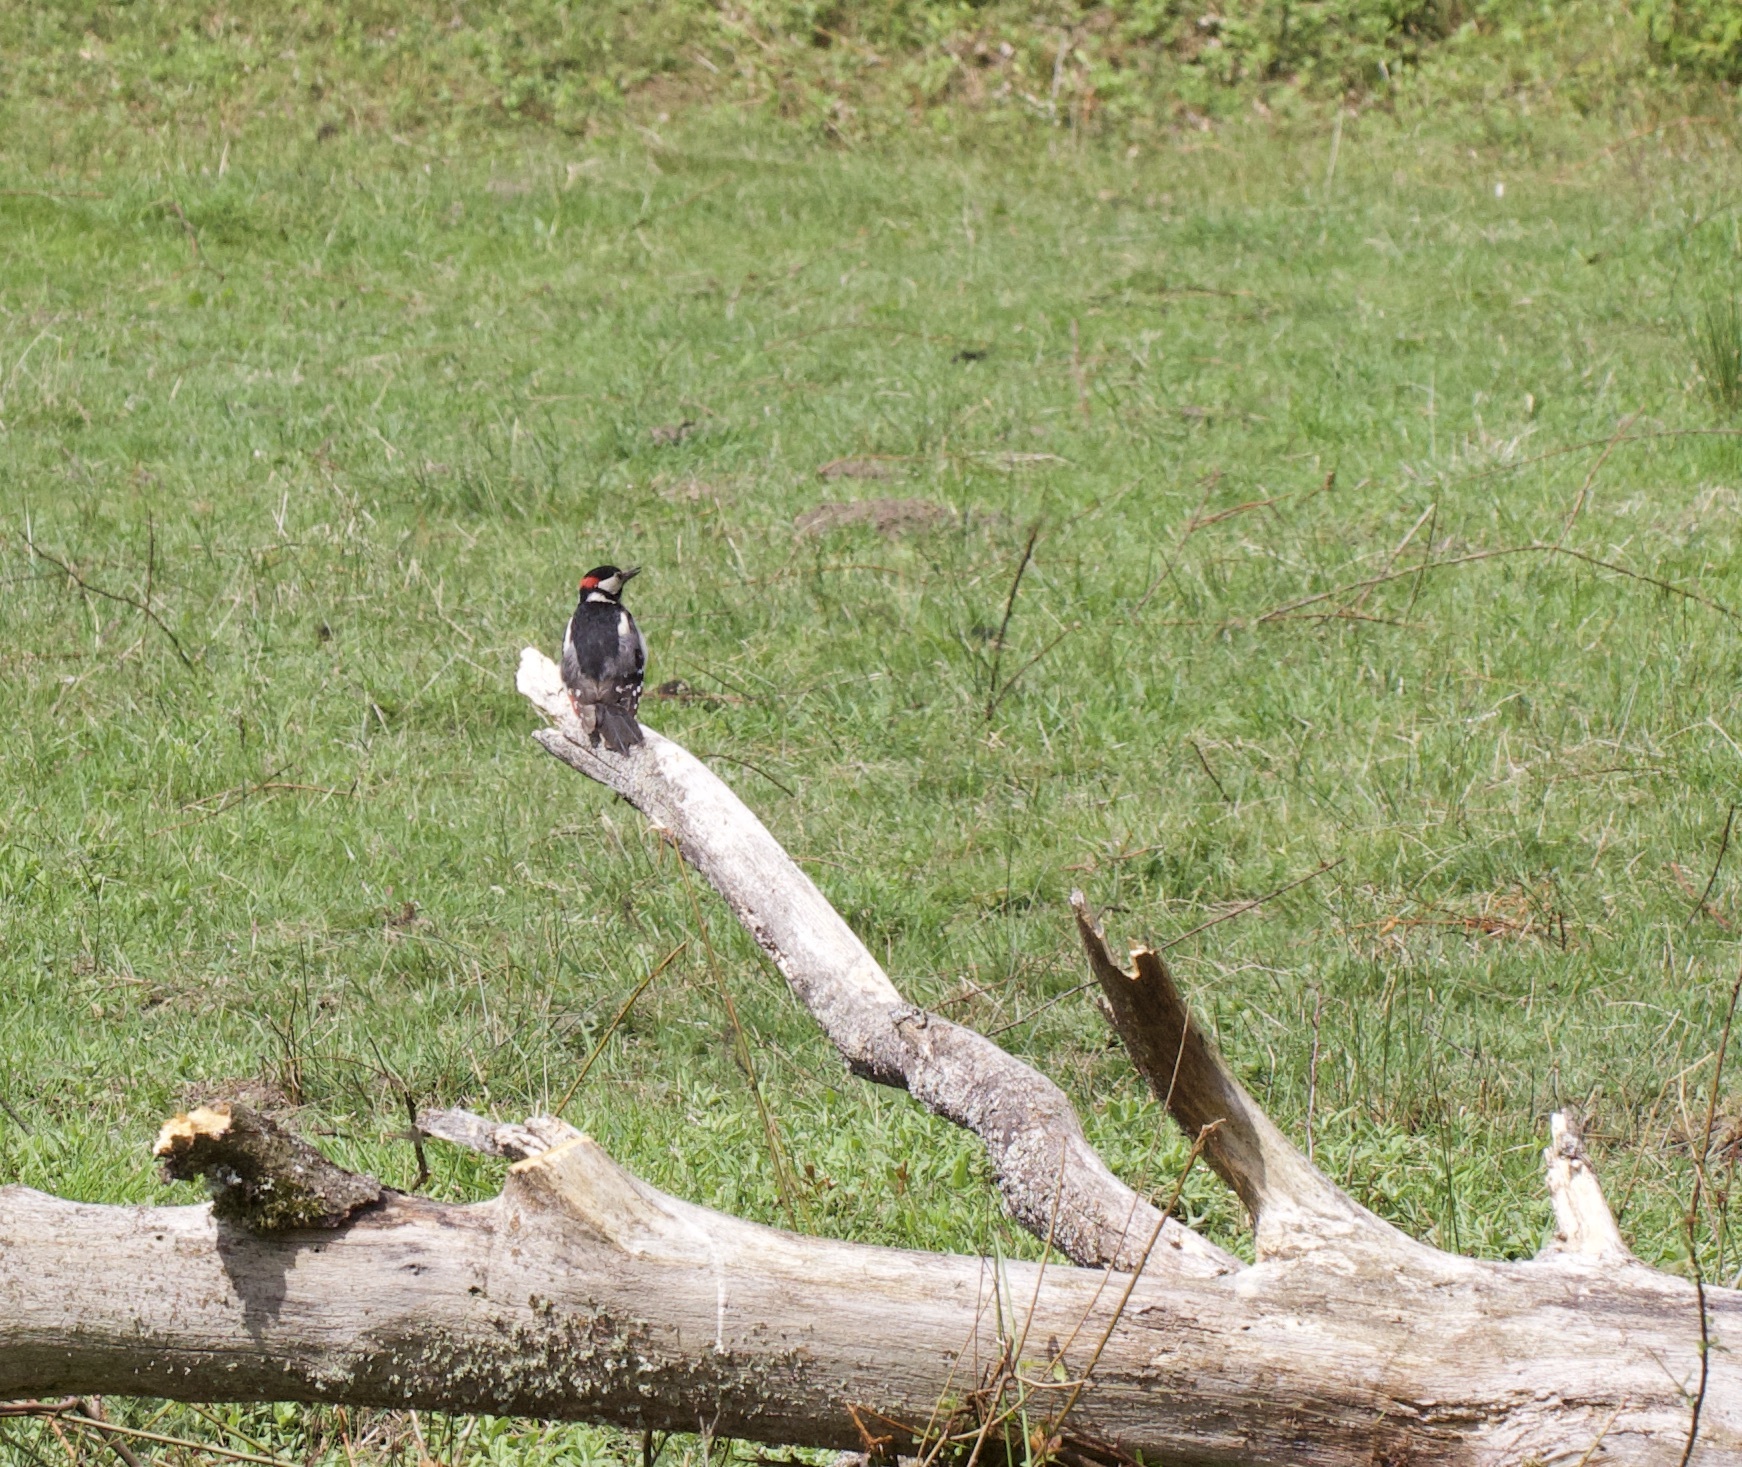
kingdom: Animalia
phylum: Chordata
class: Aves
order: Piciformes
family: Picidae
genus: Dendrocopos
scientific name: Dendrocopos major
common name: Great spotted woodpecker
